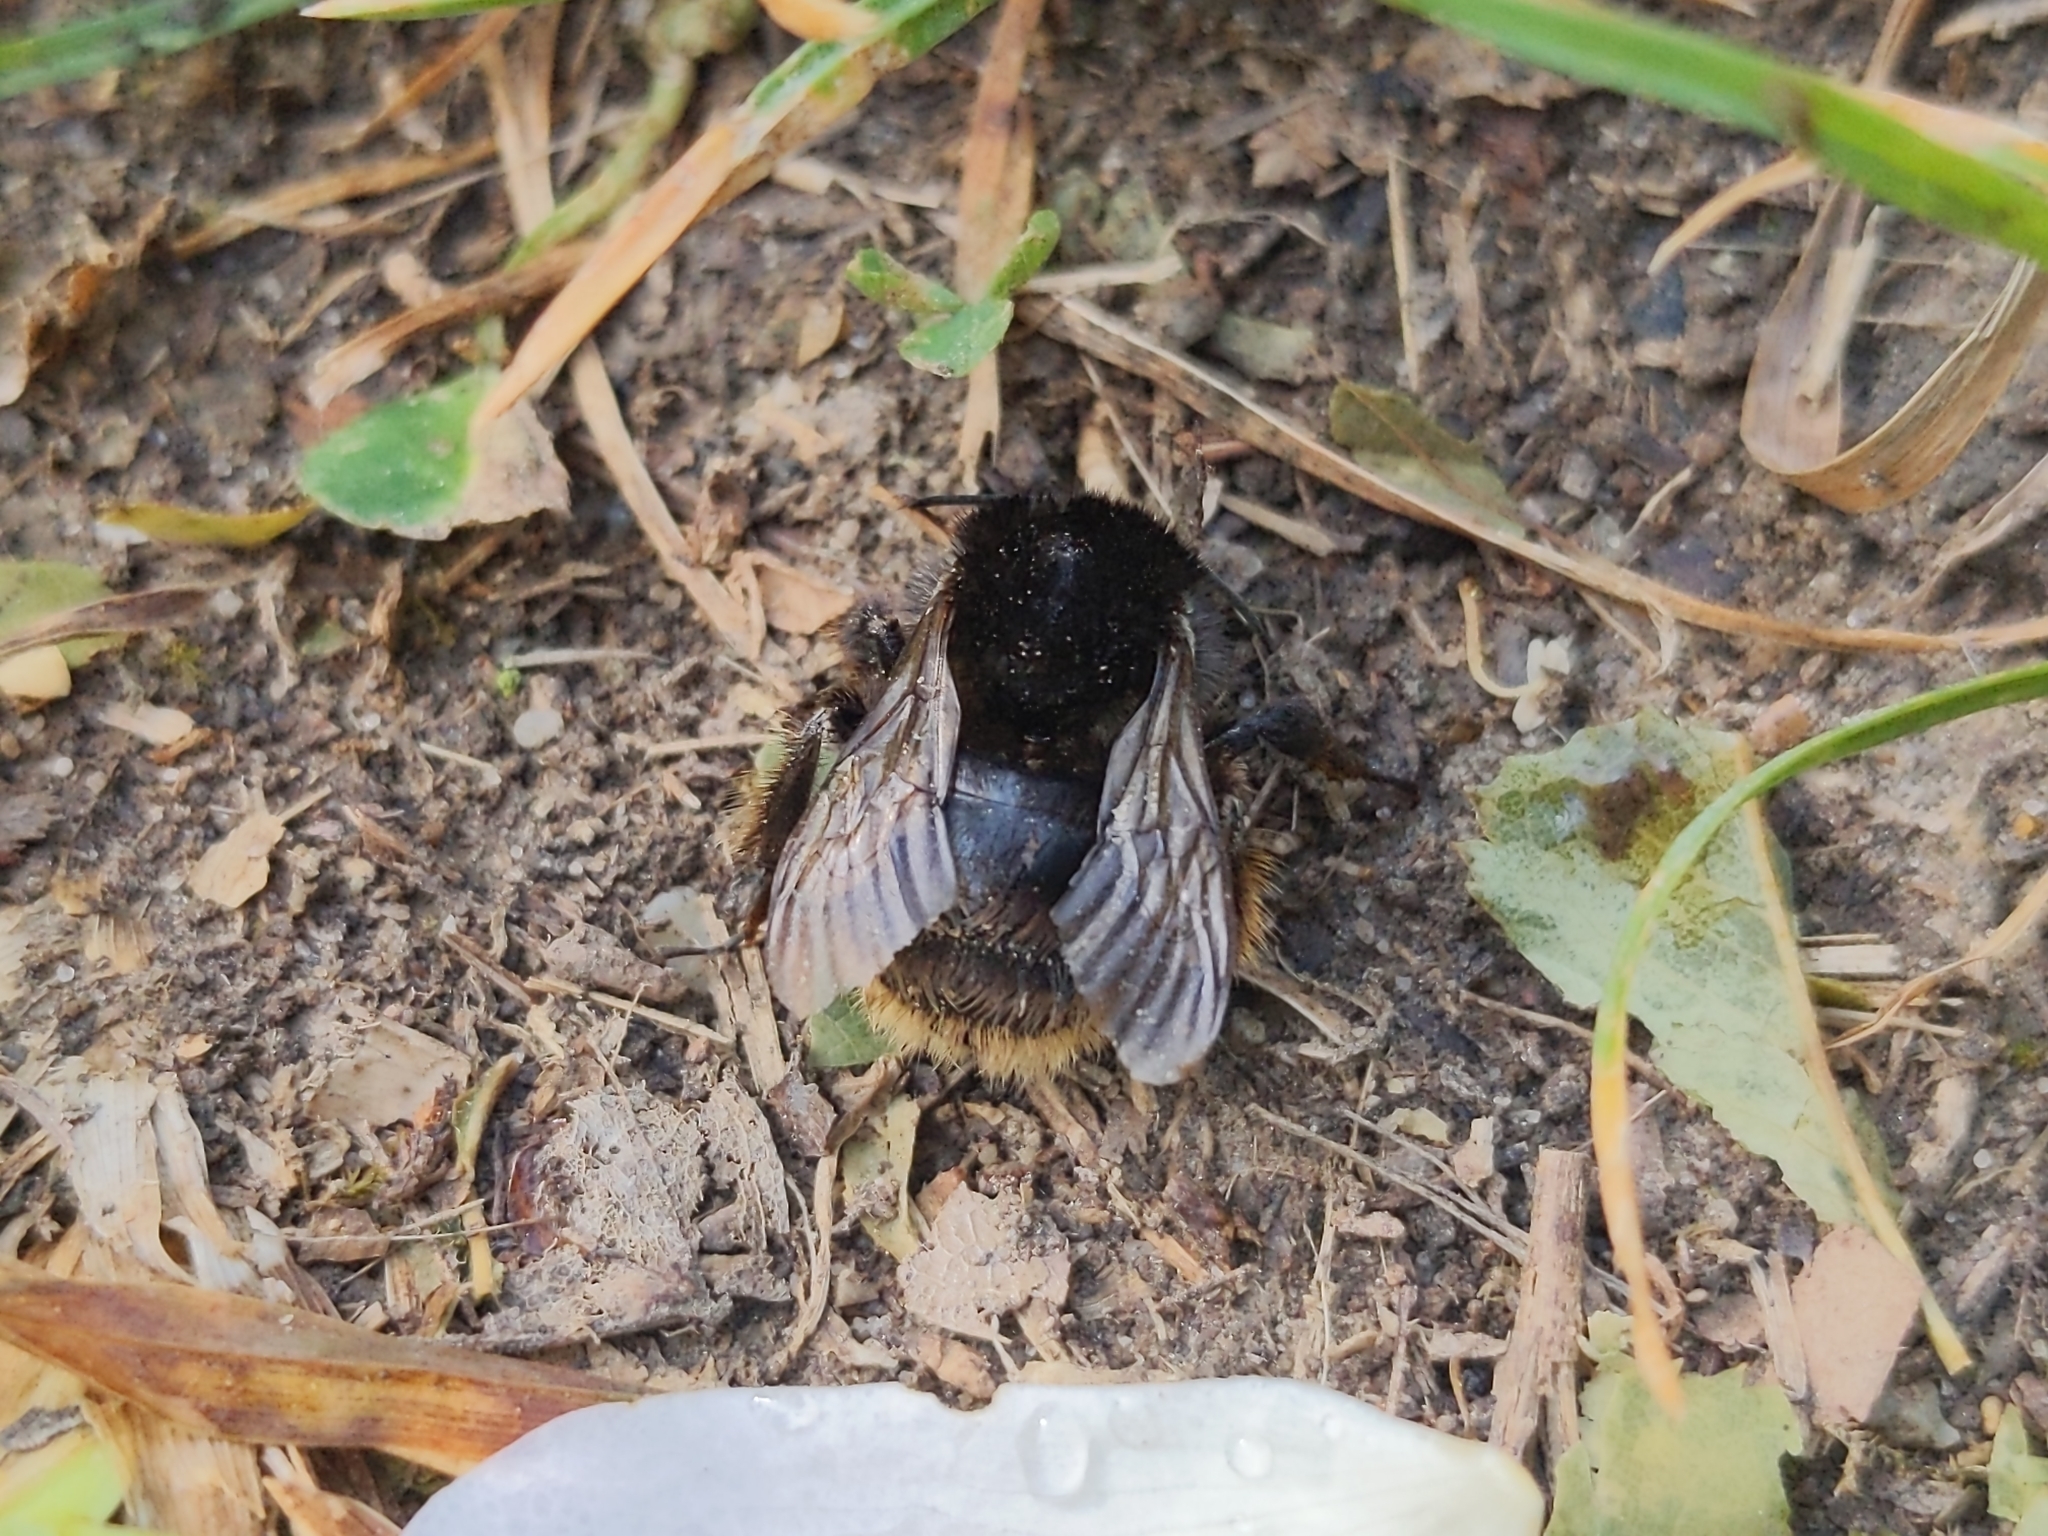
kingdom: Animalia
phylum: Arthropoda
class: Insecta
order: Hymenoptera
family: Apidae
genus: Bombus
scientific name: Bombus humilis
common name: Brown-banded carder-bee
